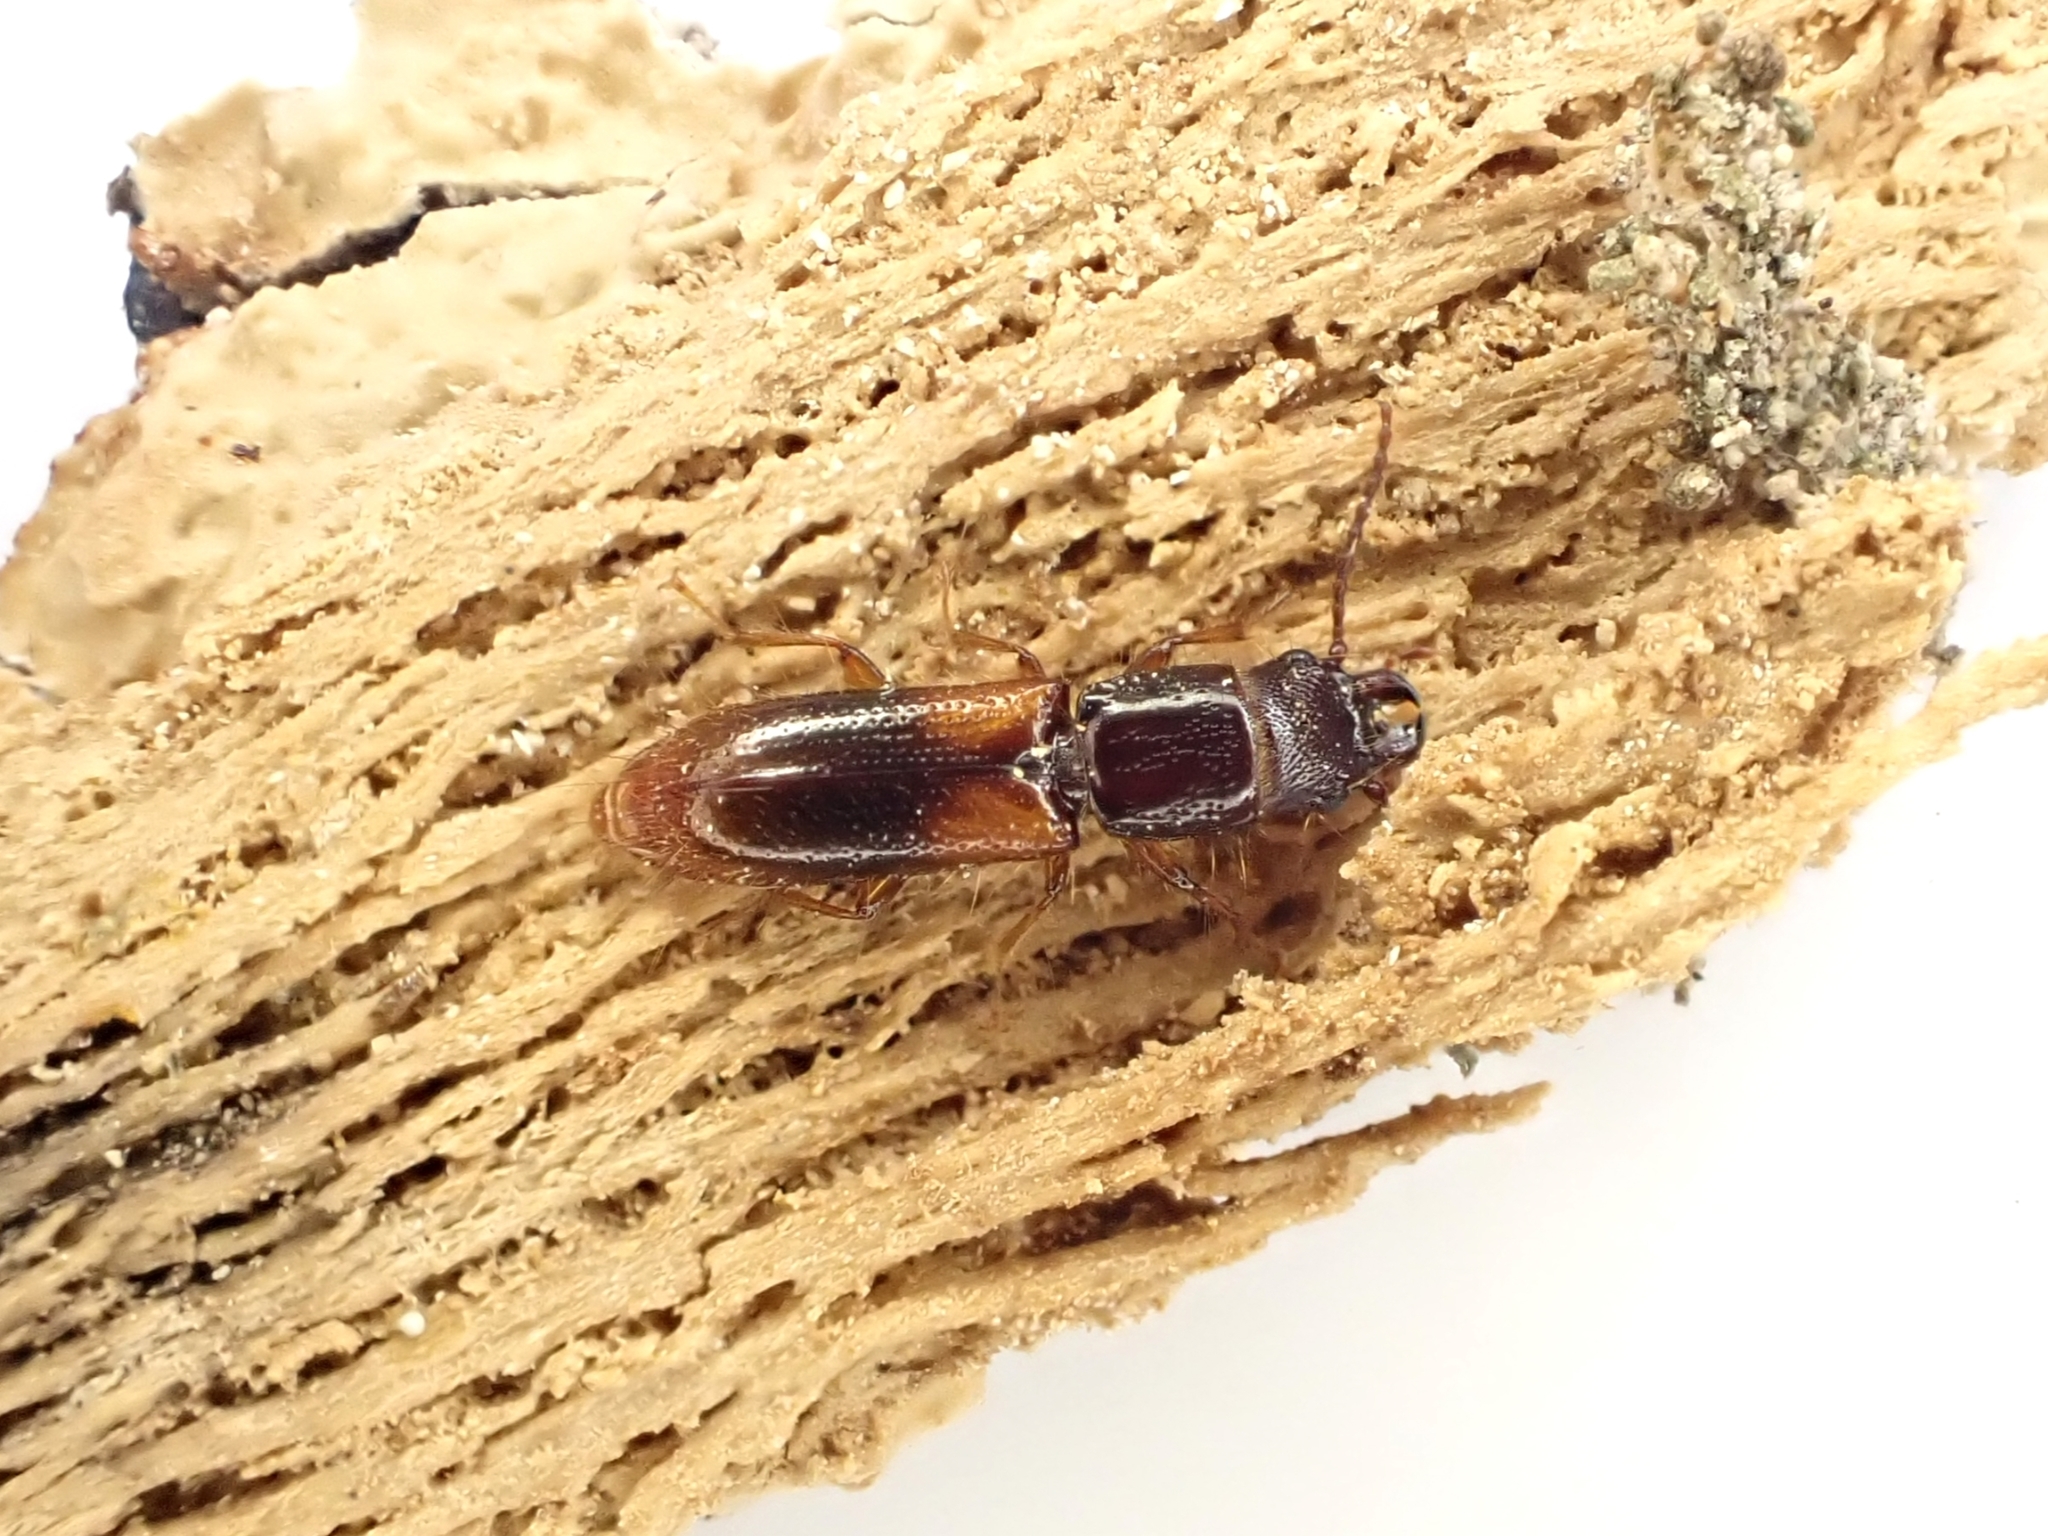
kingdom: Animalia
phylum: Arthropoda
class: Insecta
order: Coleoptera
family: Chaetosomatidae
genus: Chaetosoma
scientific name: Chaetosoma scaritides
